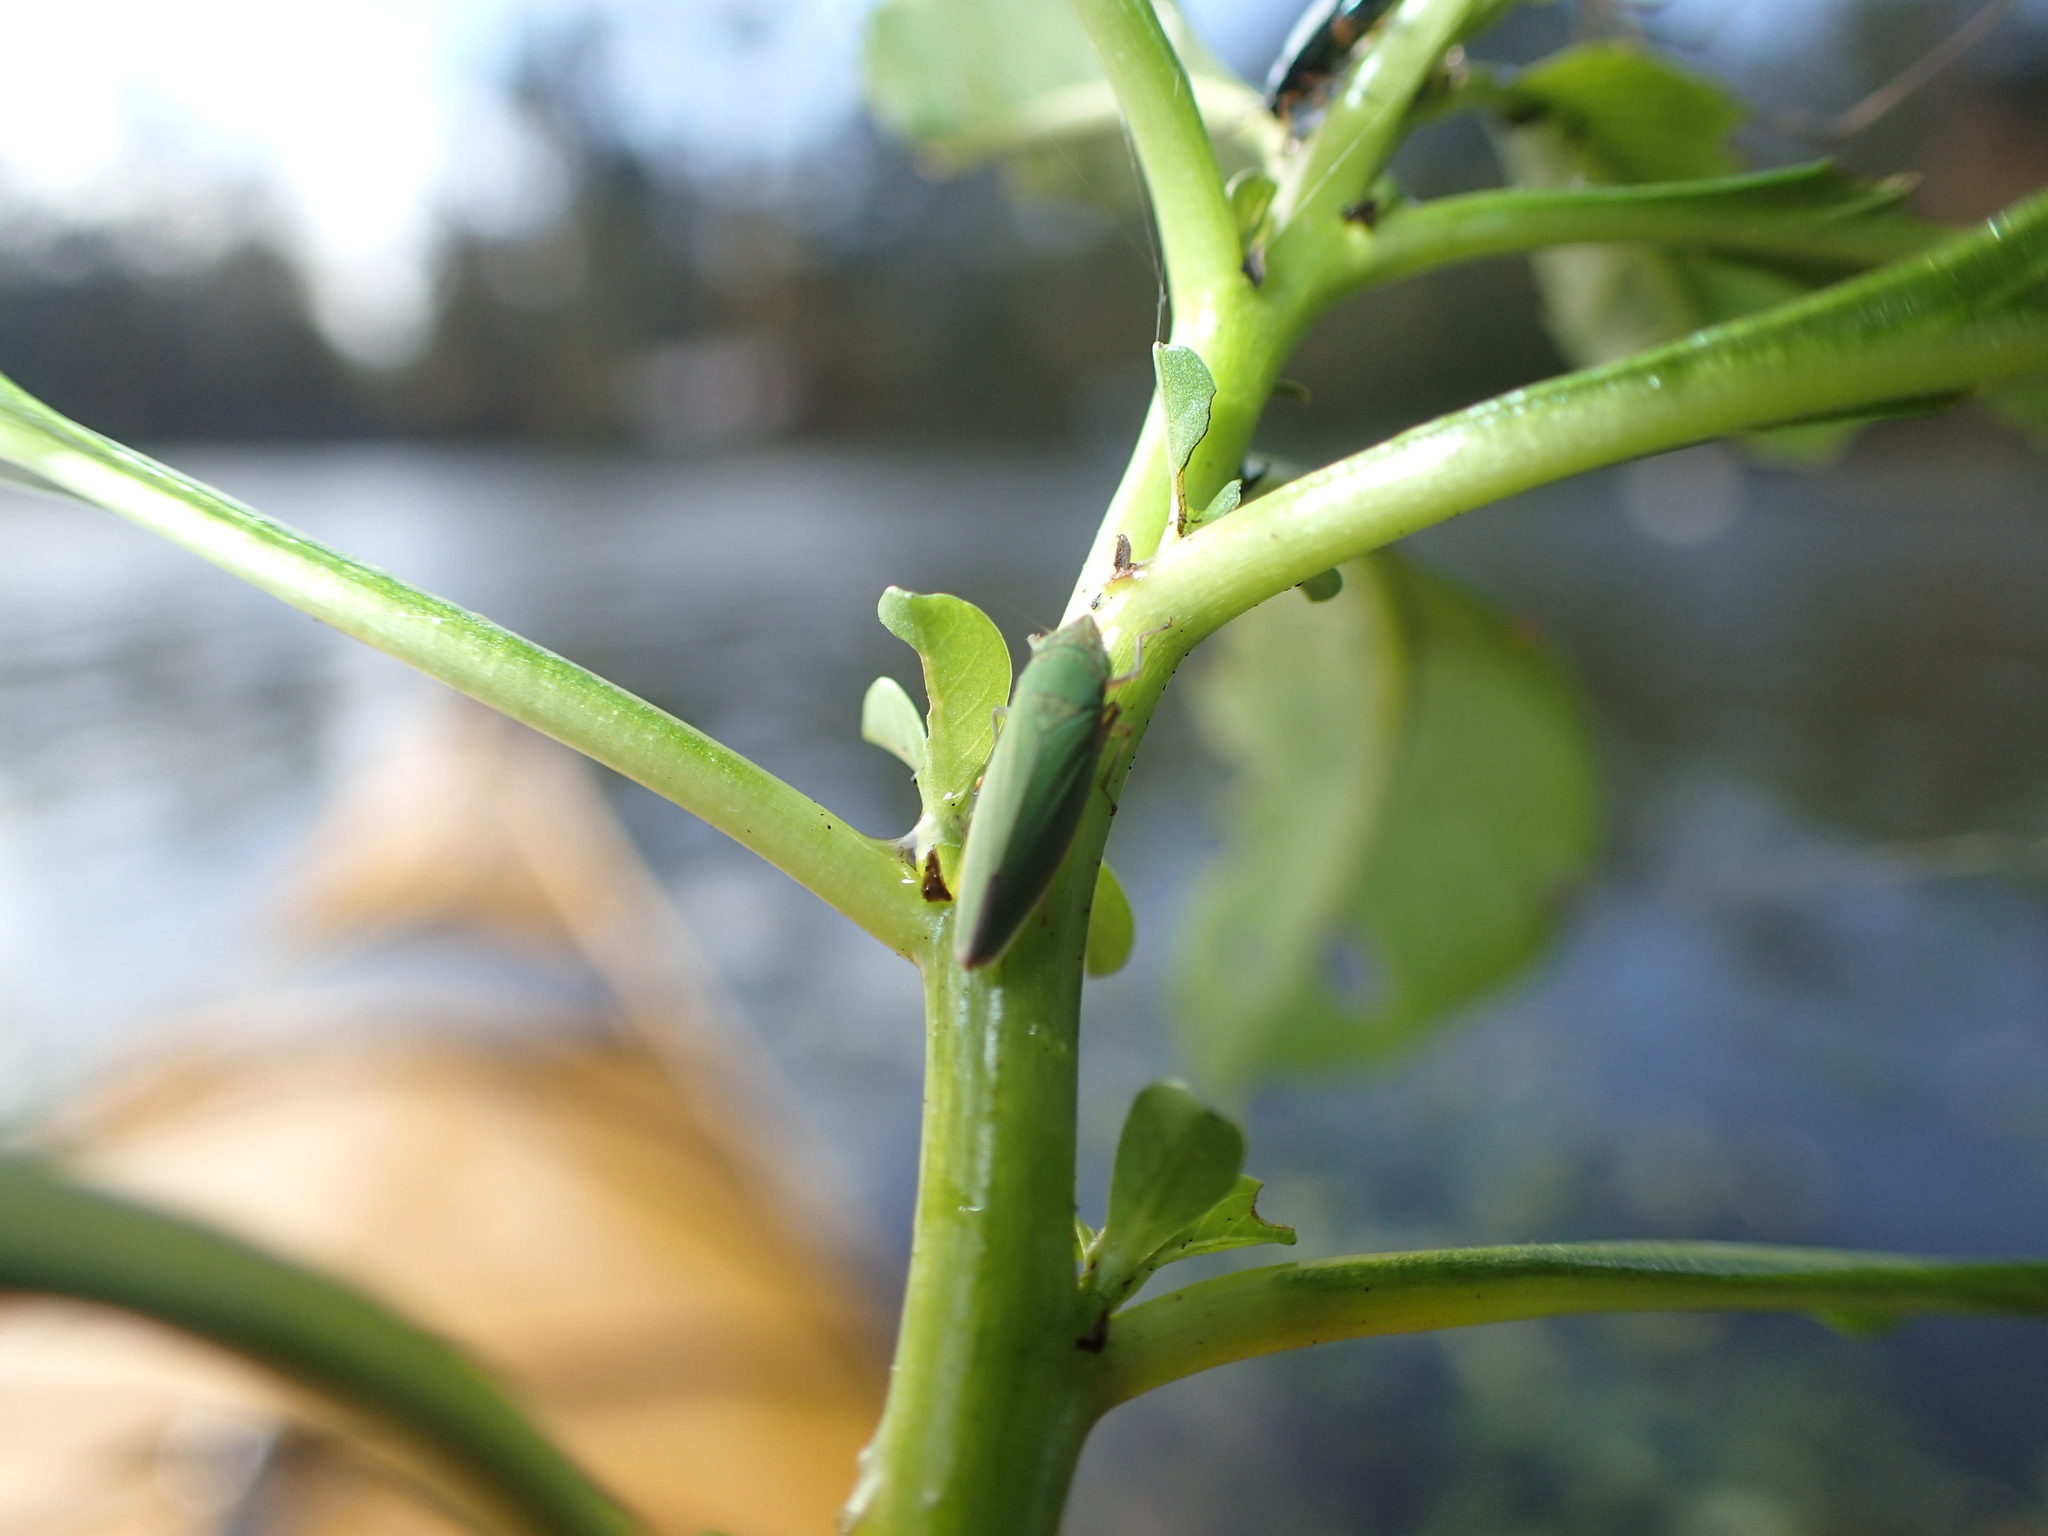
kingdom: Animalia
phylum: Arthropoda
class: Insecta
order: Hemiptera
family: Cicadellidae
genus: Draeculacephala
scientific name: Draeculacephala inscripta
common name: Leafhopper
